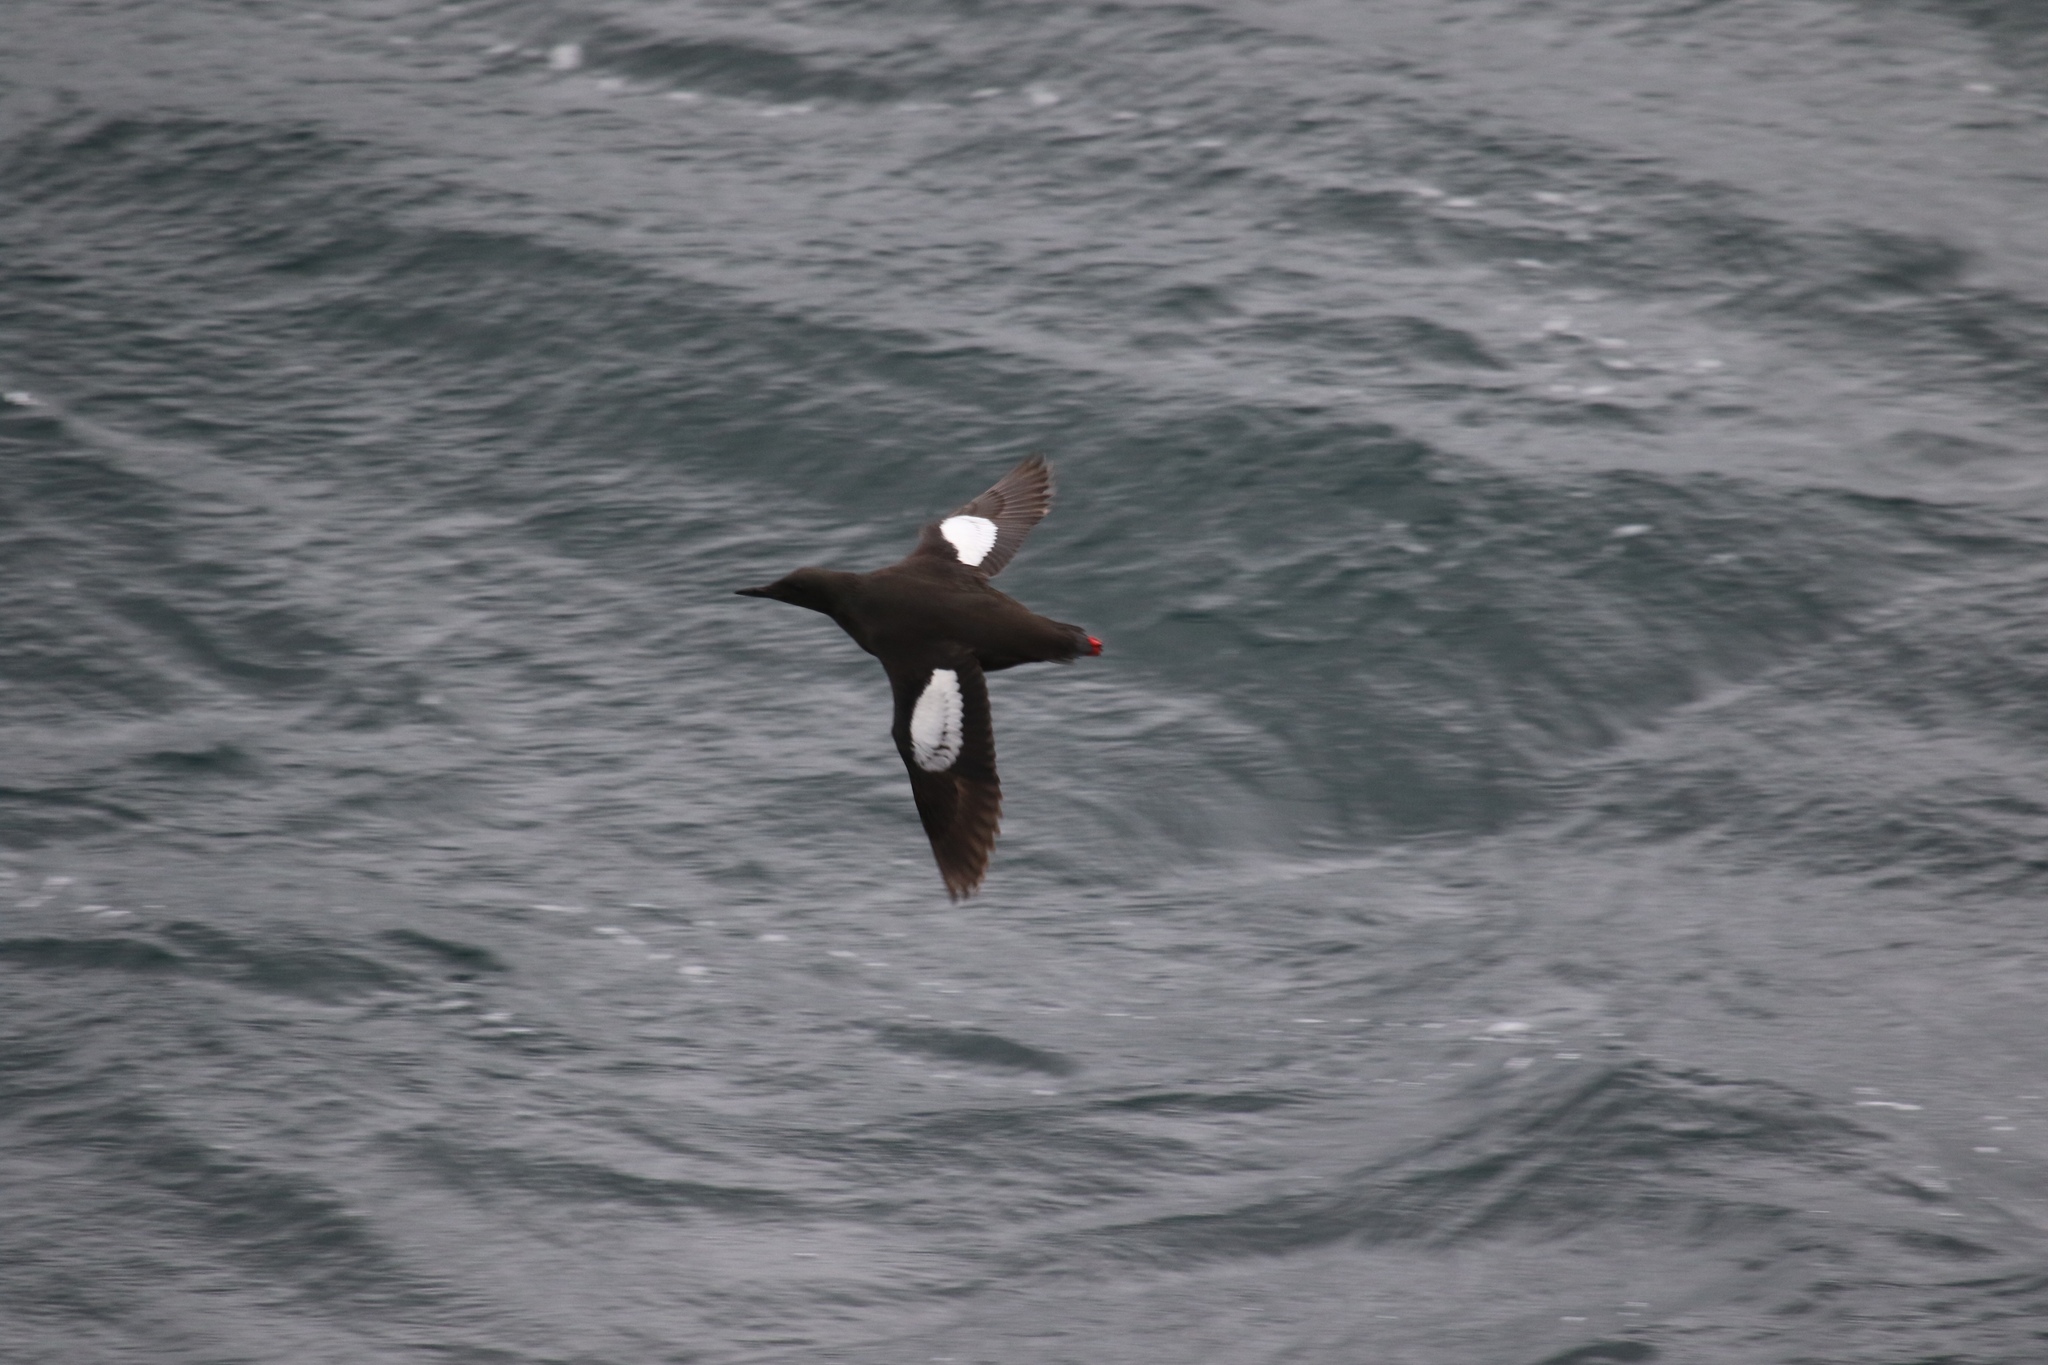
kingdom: Animalia
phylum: Chordata
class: Aves
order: Charadriiformes
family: Alcidae
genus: Cepphus
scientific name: Cepphus grylle
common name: Black guillemot
